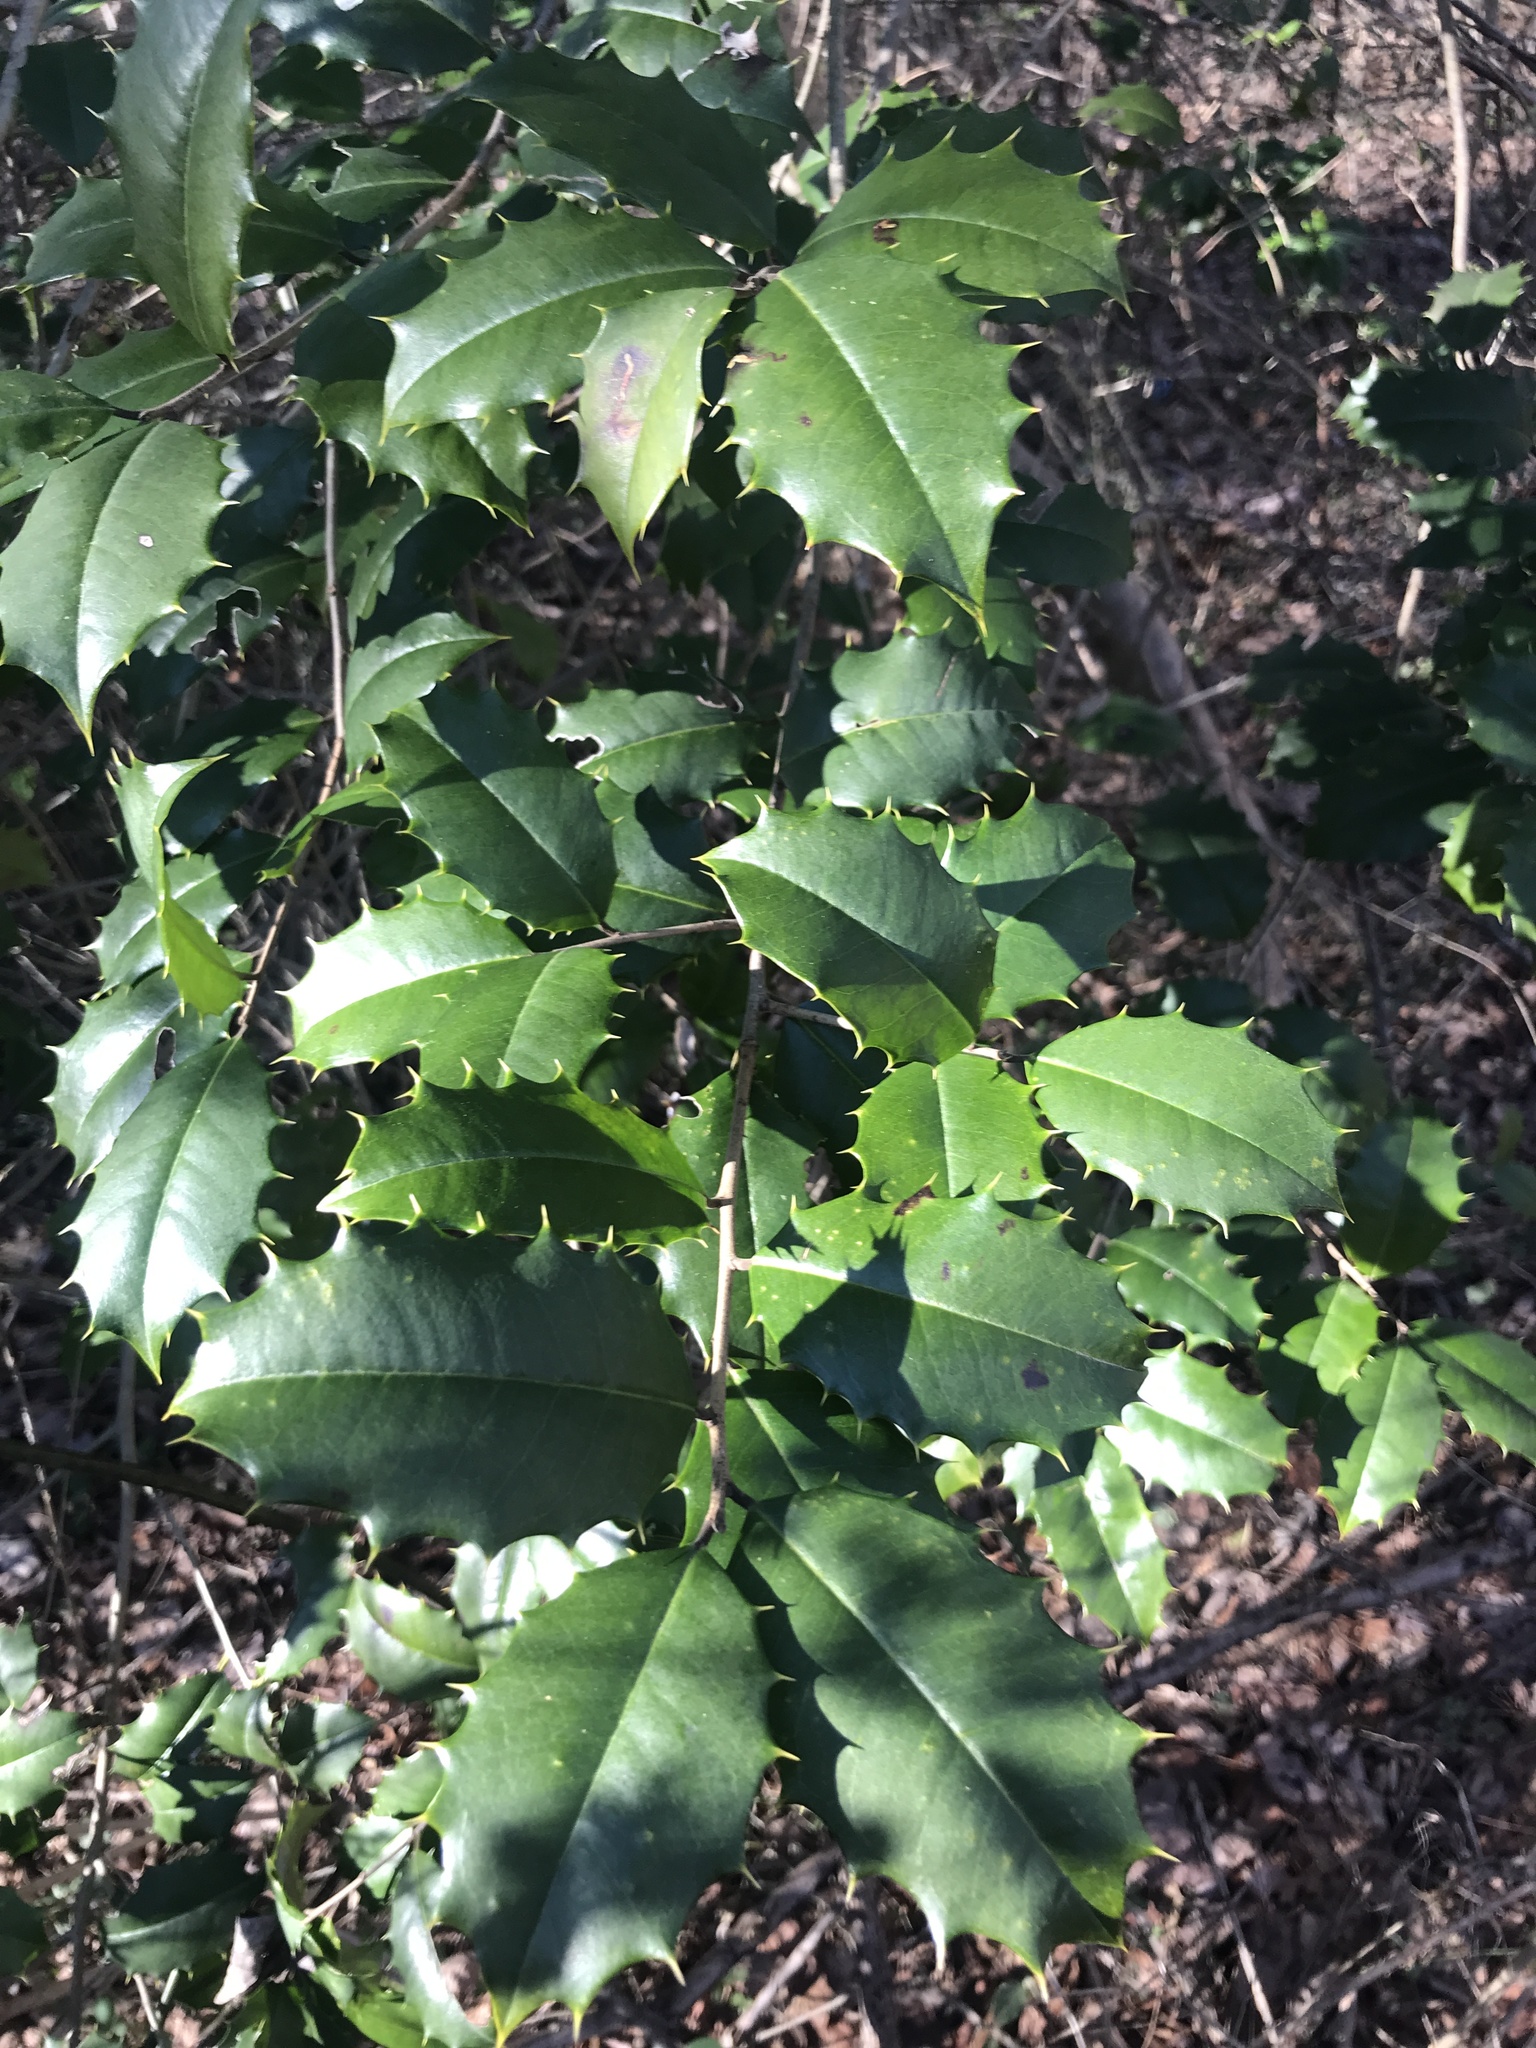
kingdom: Plantae
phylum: Tracheophyta
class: Magnoliopsida
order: Aquifoliales
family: Aquifoliaceae
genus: Ilex
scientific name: Ilex opaca
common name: American holly
